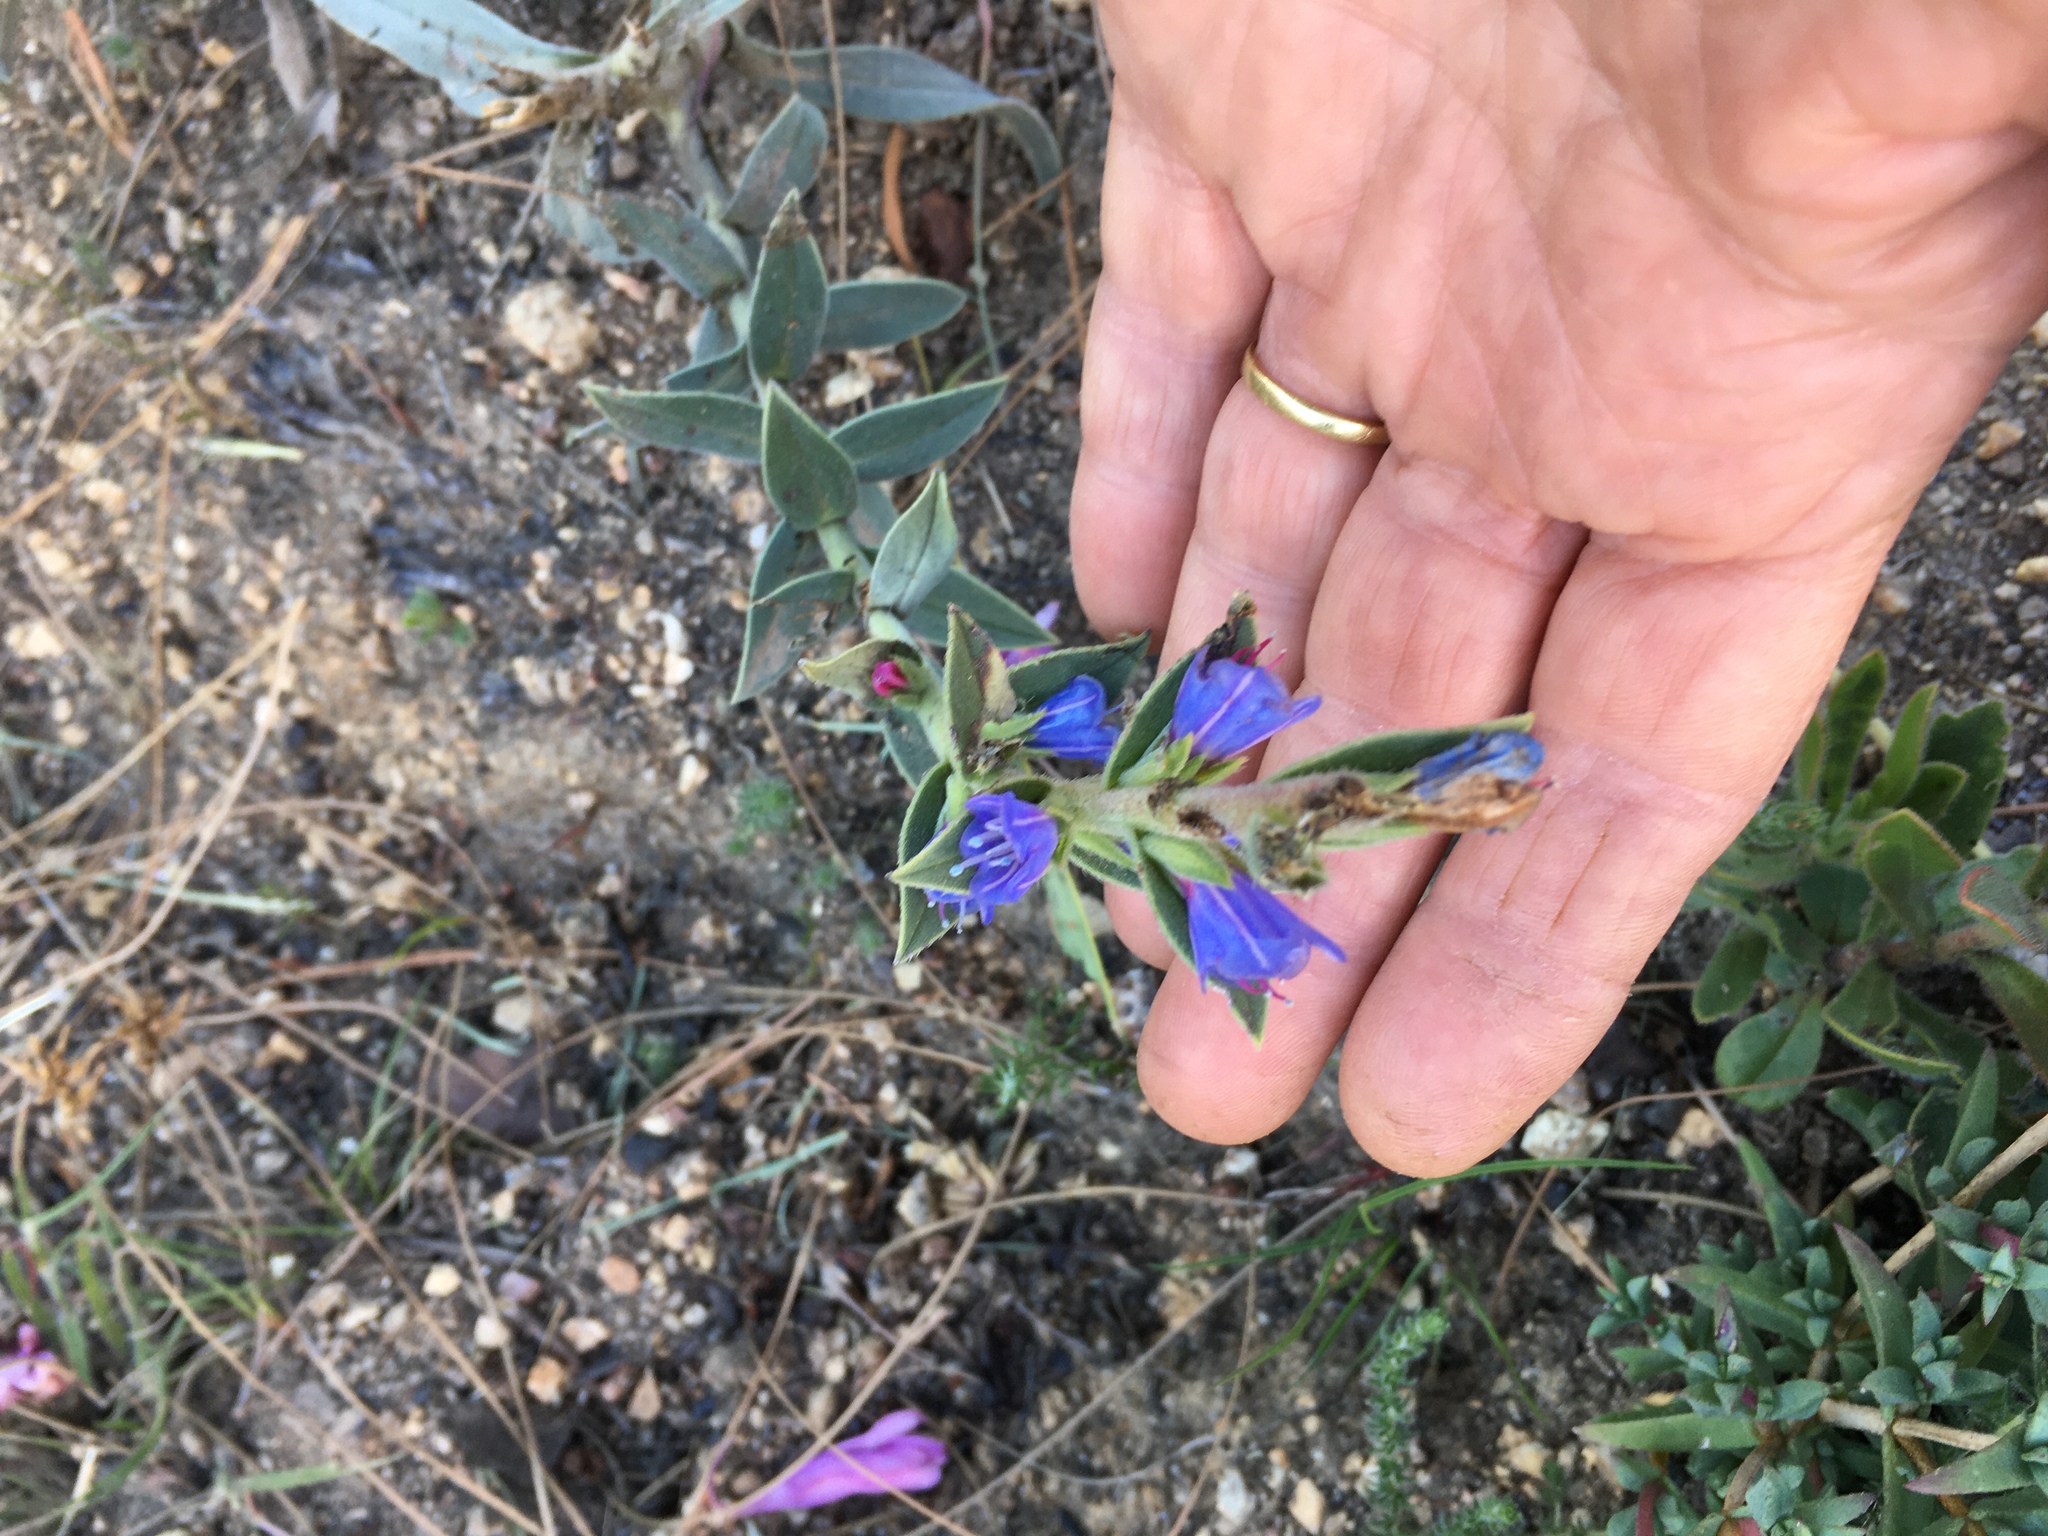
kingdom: Plantae
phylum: Tracheophyta
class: Magnoliopsida
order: Boraginales
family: Boraginaceae
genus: Lobostemon
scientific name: Lobostemon argenteus
